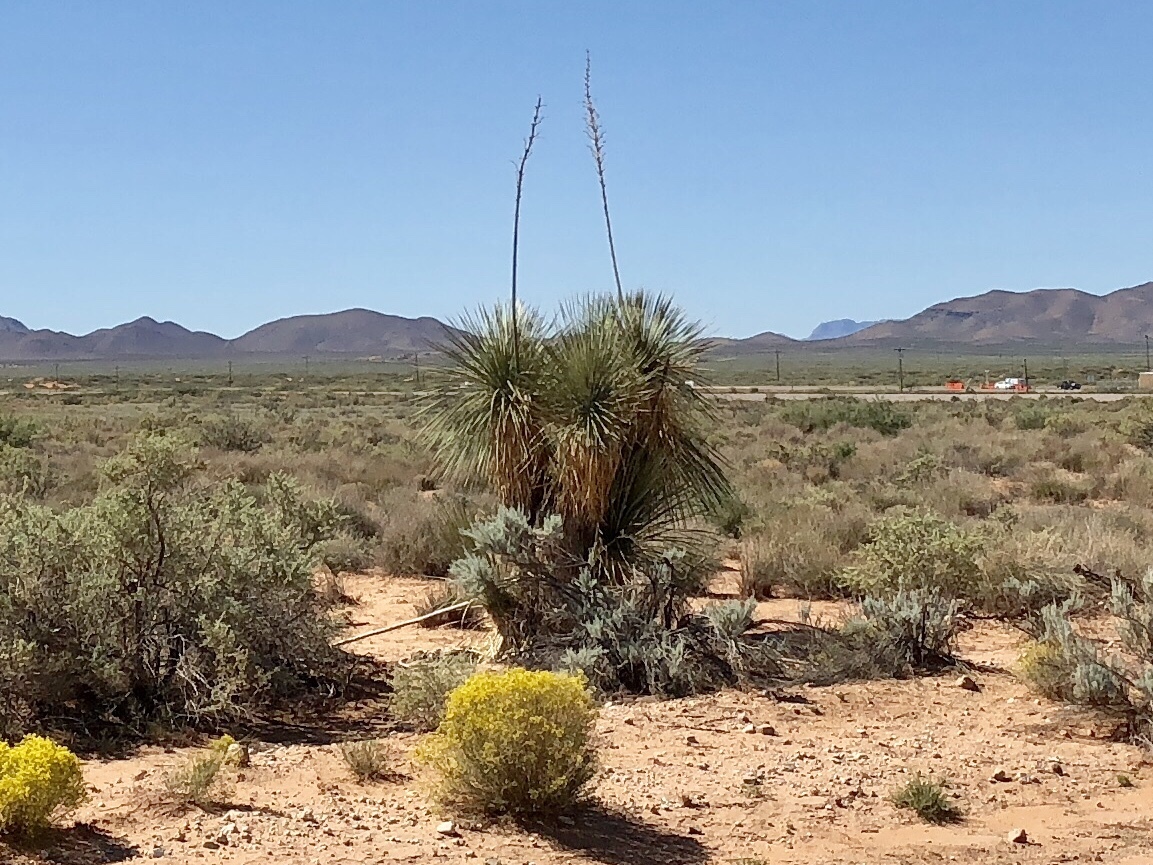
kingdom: Plantae
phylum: Tracheophyta
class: Liliopsida
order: Asparagales
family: Asparagaceae
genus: Yucca
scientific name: Yucca elata
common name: Palmella
